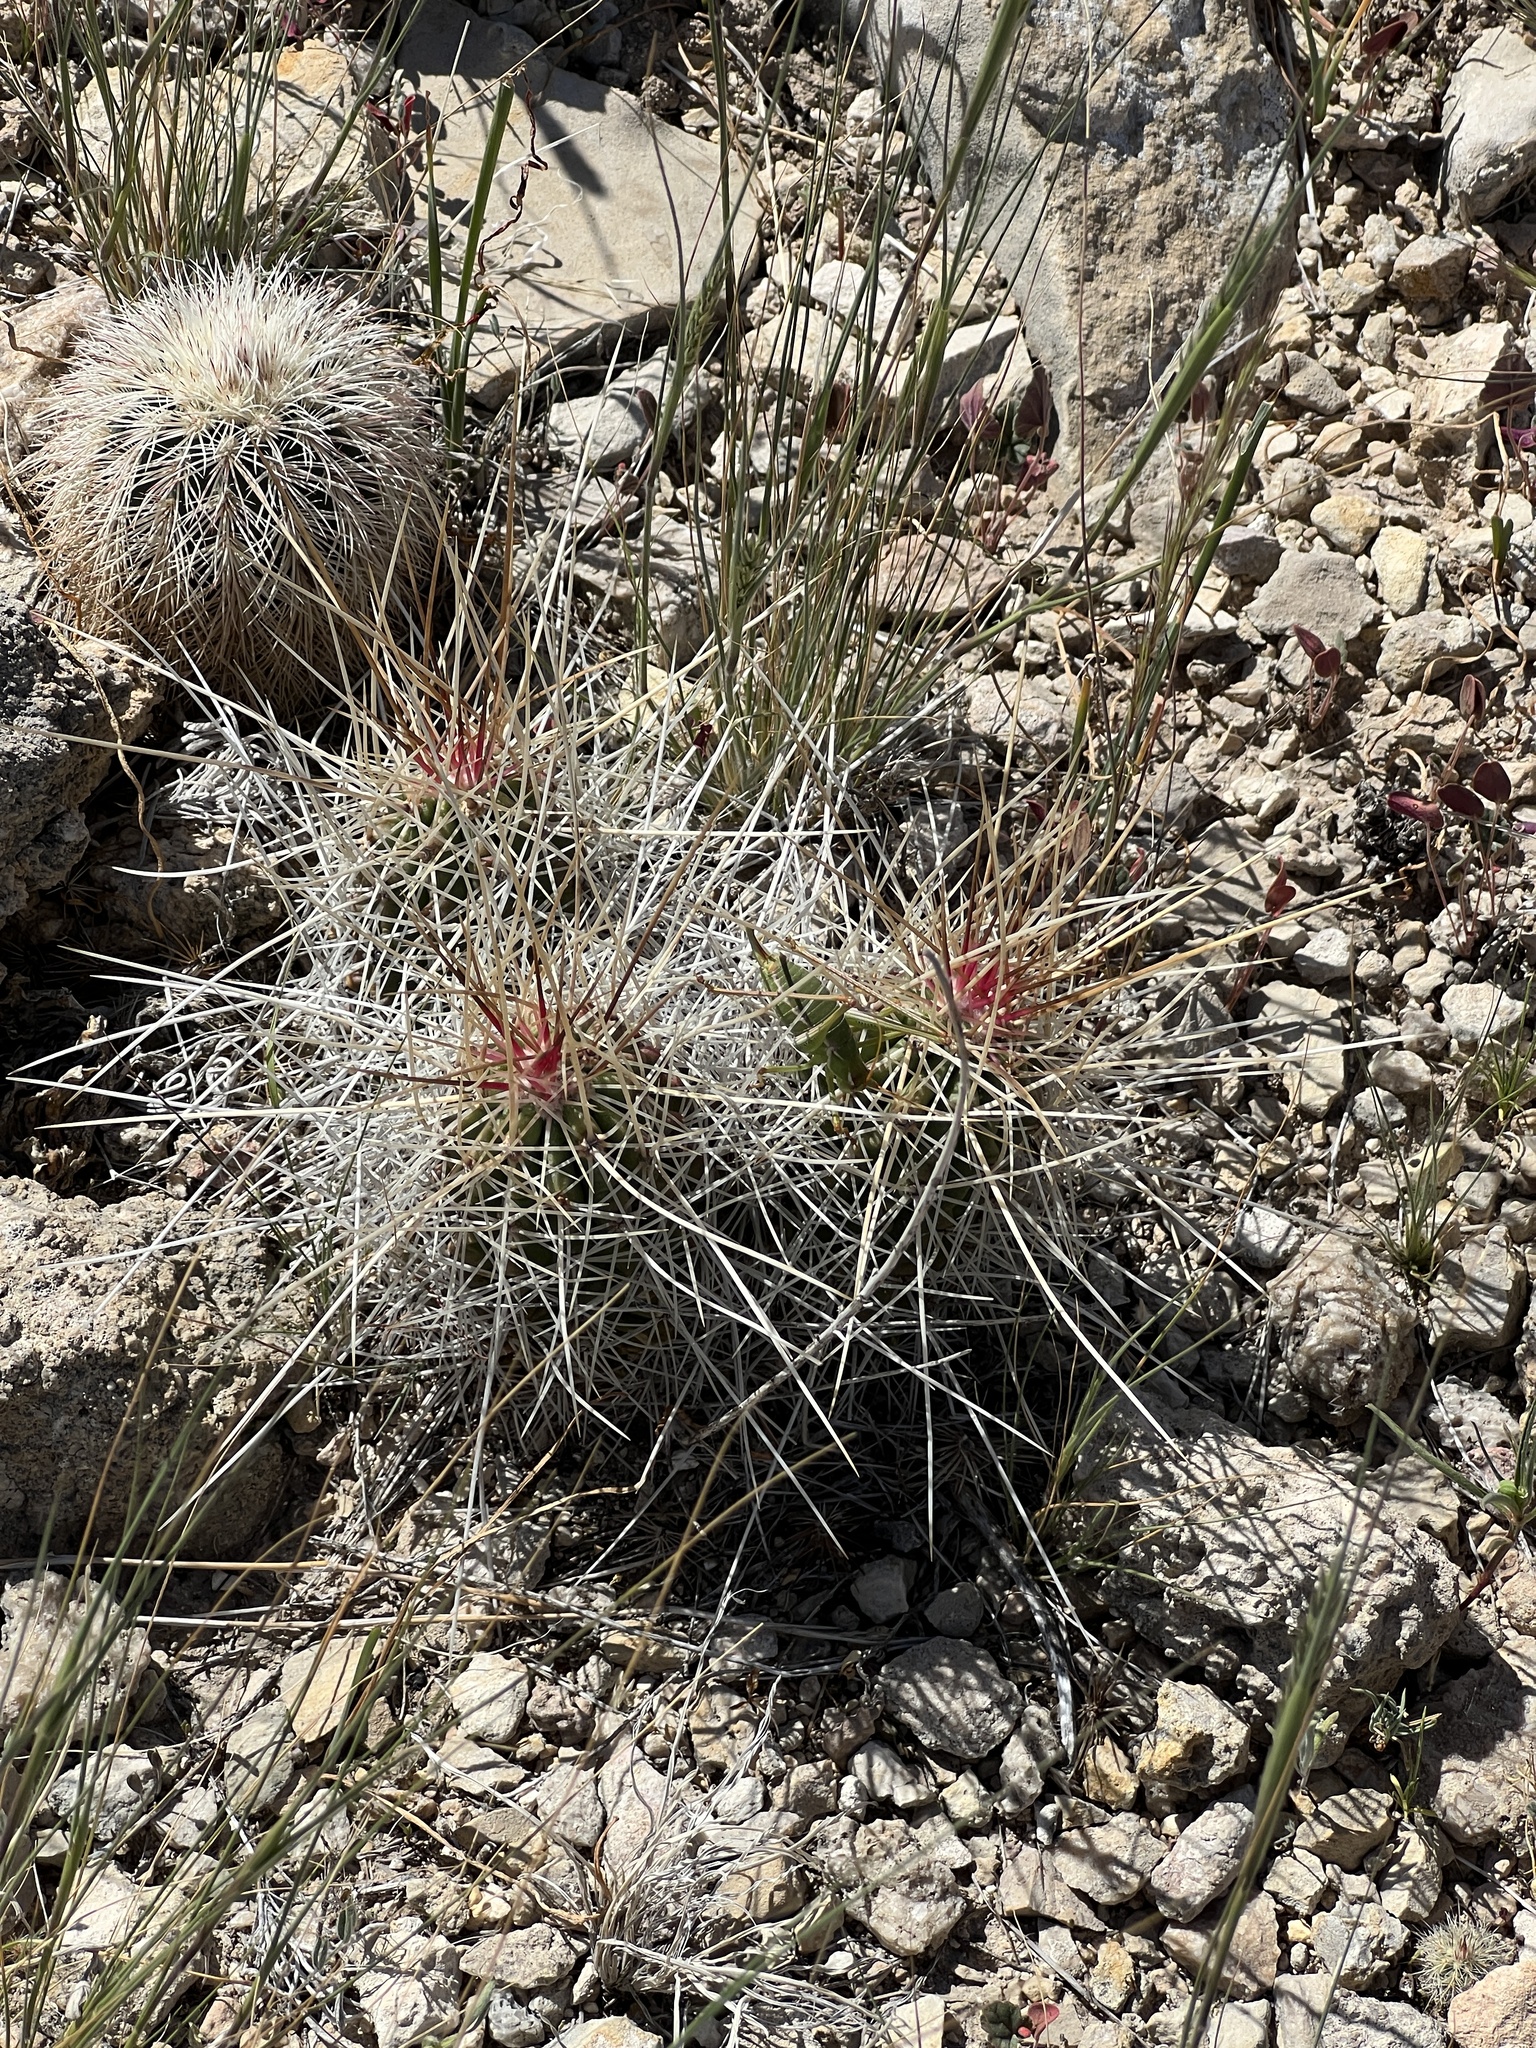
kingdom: Plantae
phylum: Tracheophyta
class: Magnoliopsida
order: Caryophyllales
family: Cactaceae
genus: Echinocereus
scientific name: Echinocereus stramineus
